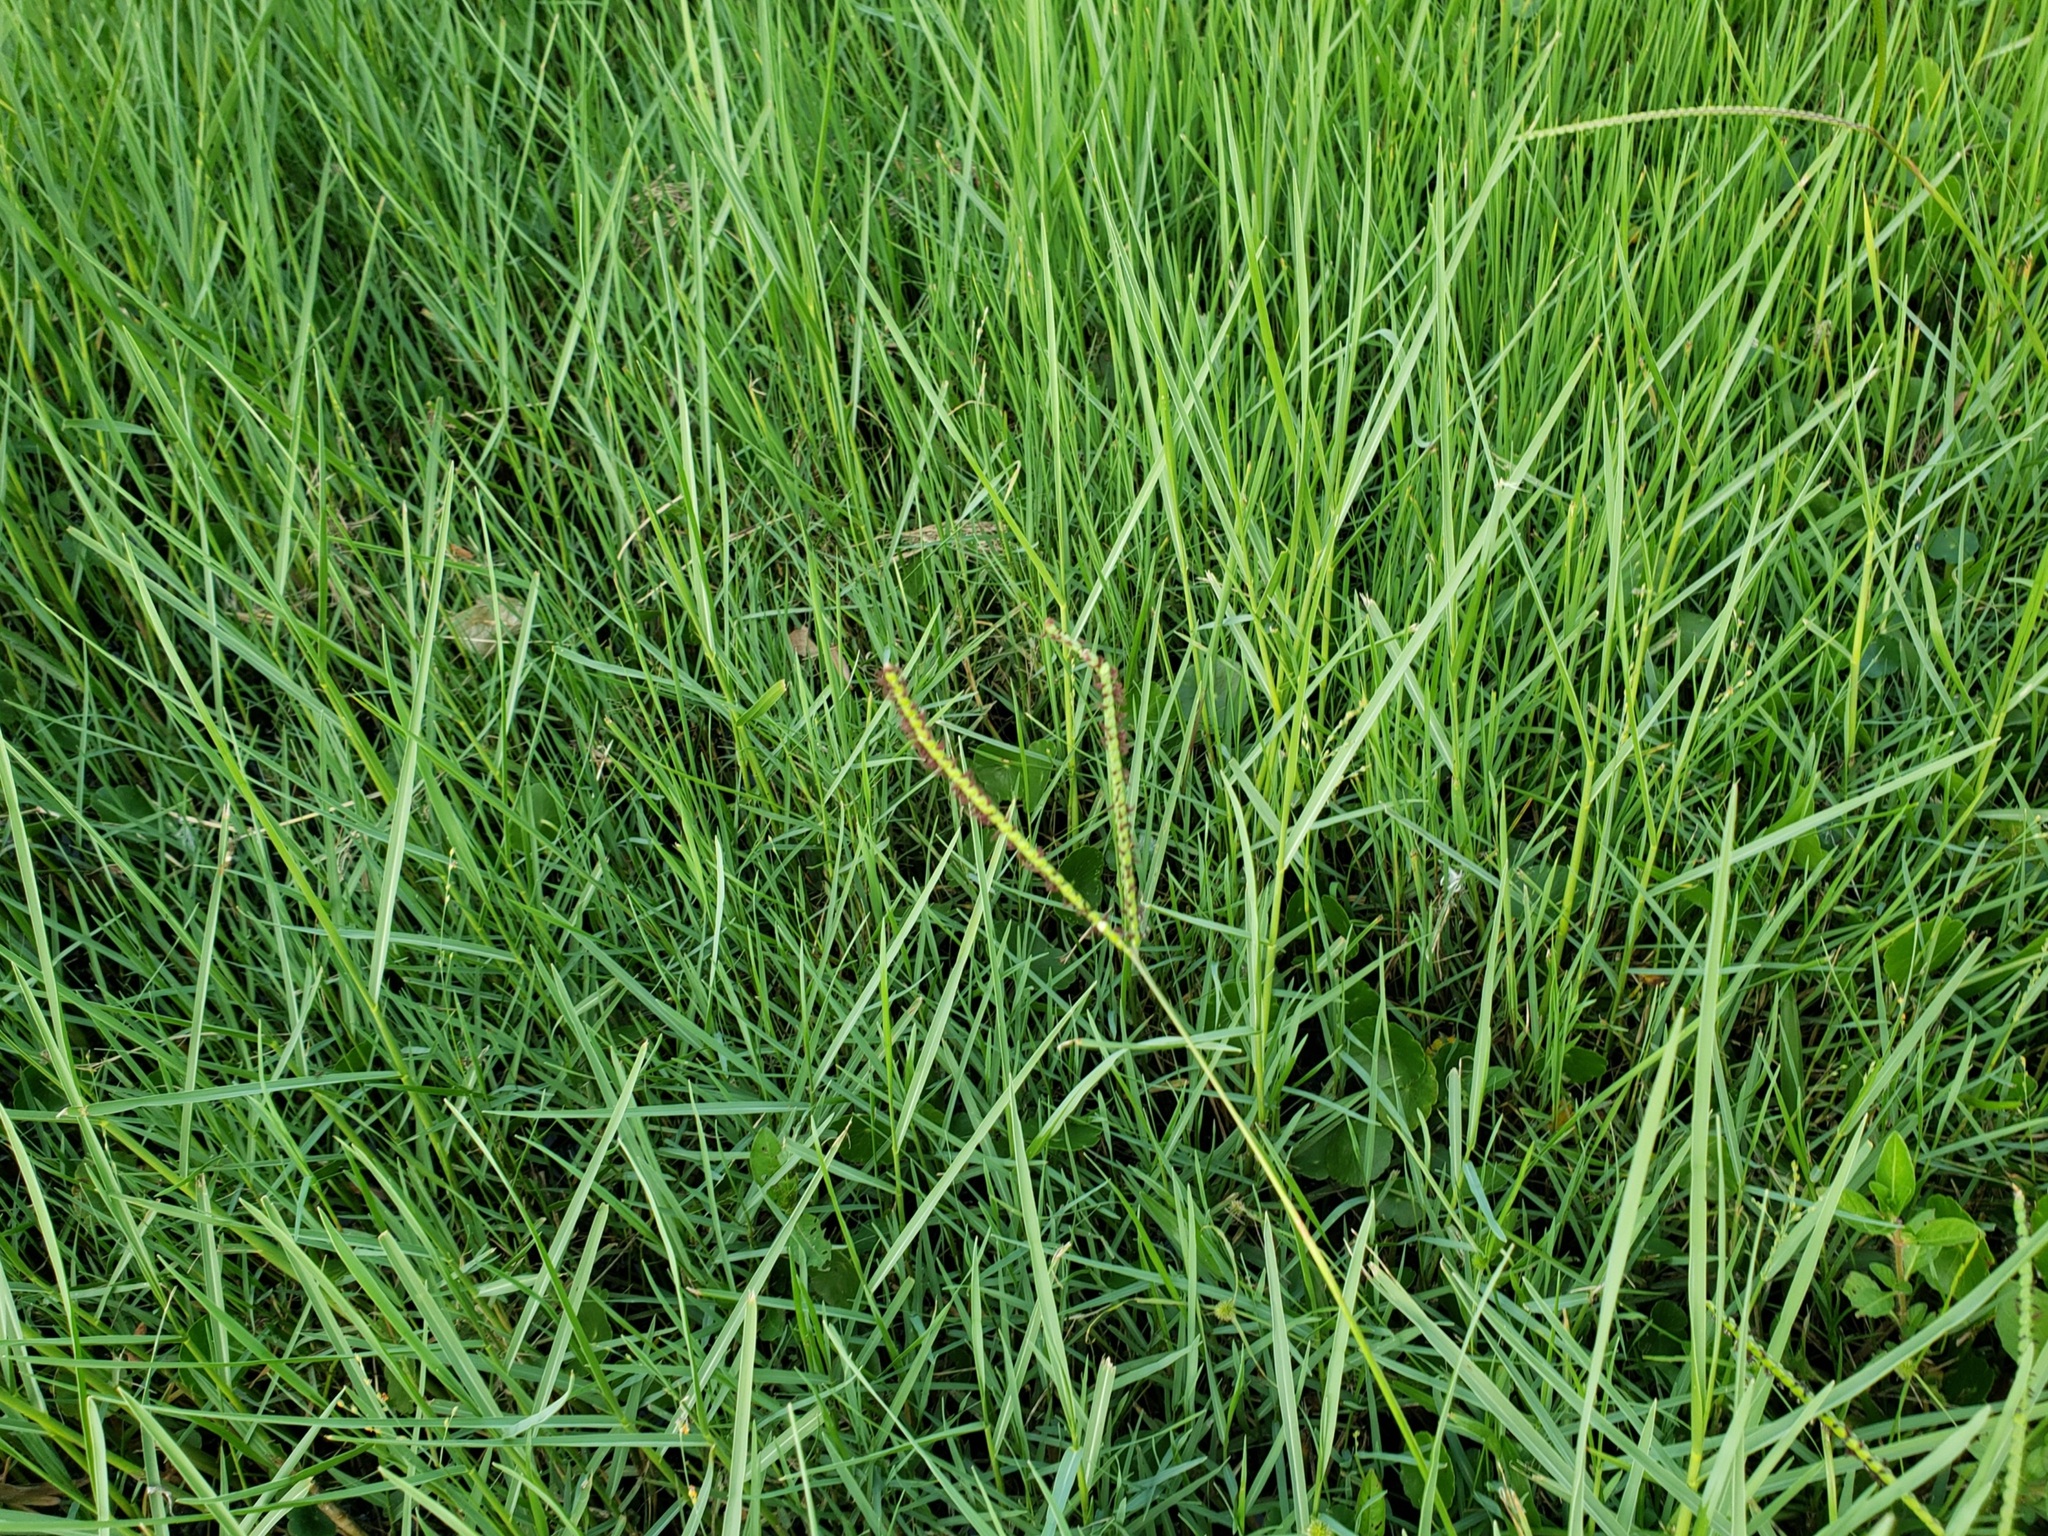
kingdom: Plantae
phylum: Tracheophyta
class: Liliopsida
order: Poales
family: Poaceae
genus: Paspalum
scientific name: Paspalum notatum
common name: Bahiagrass
